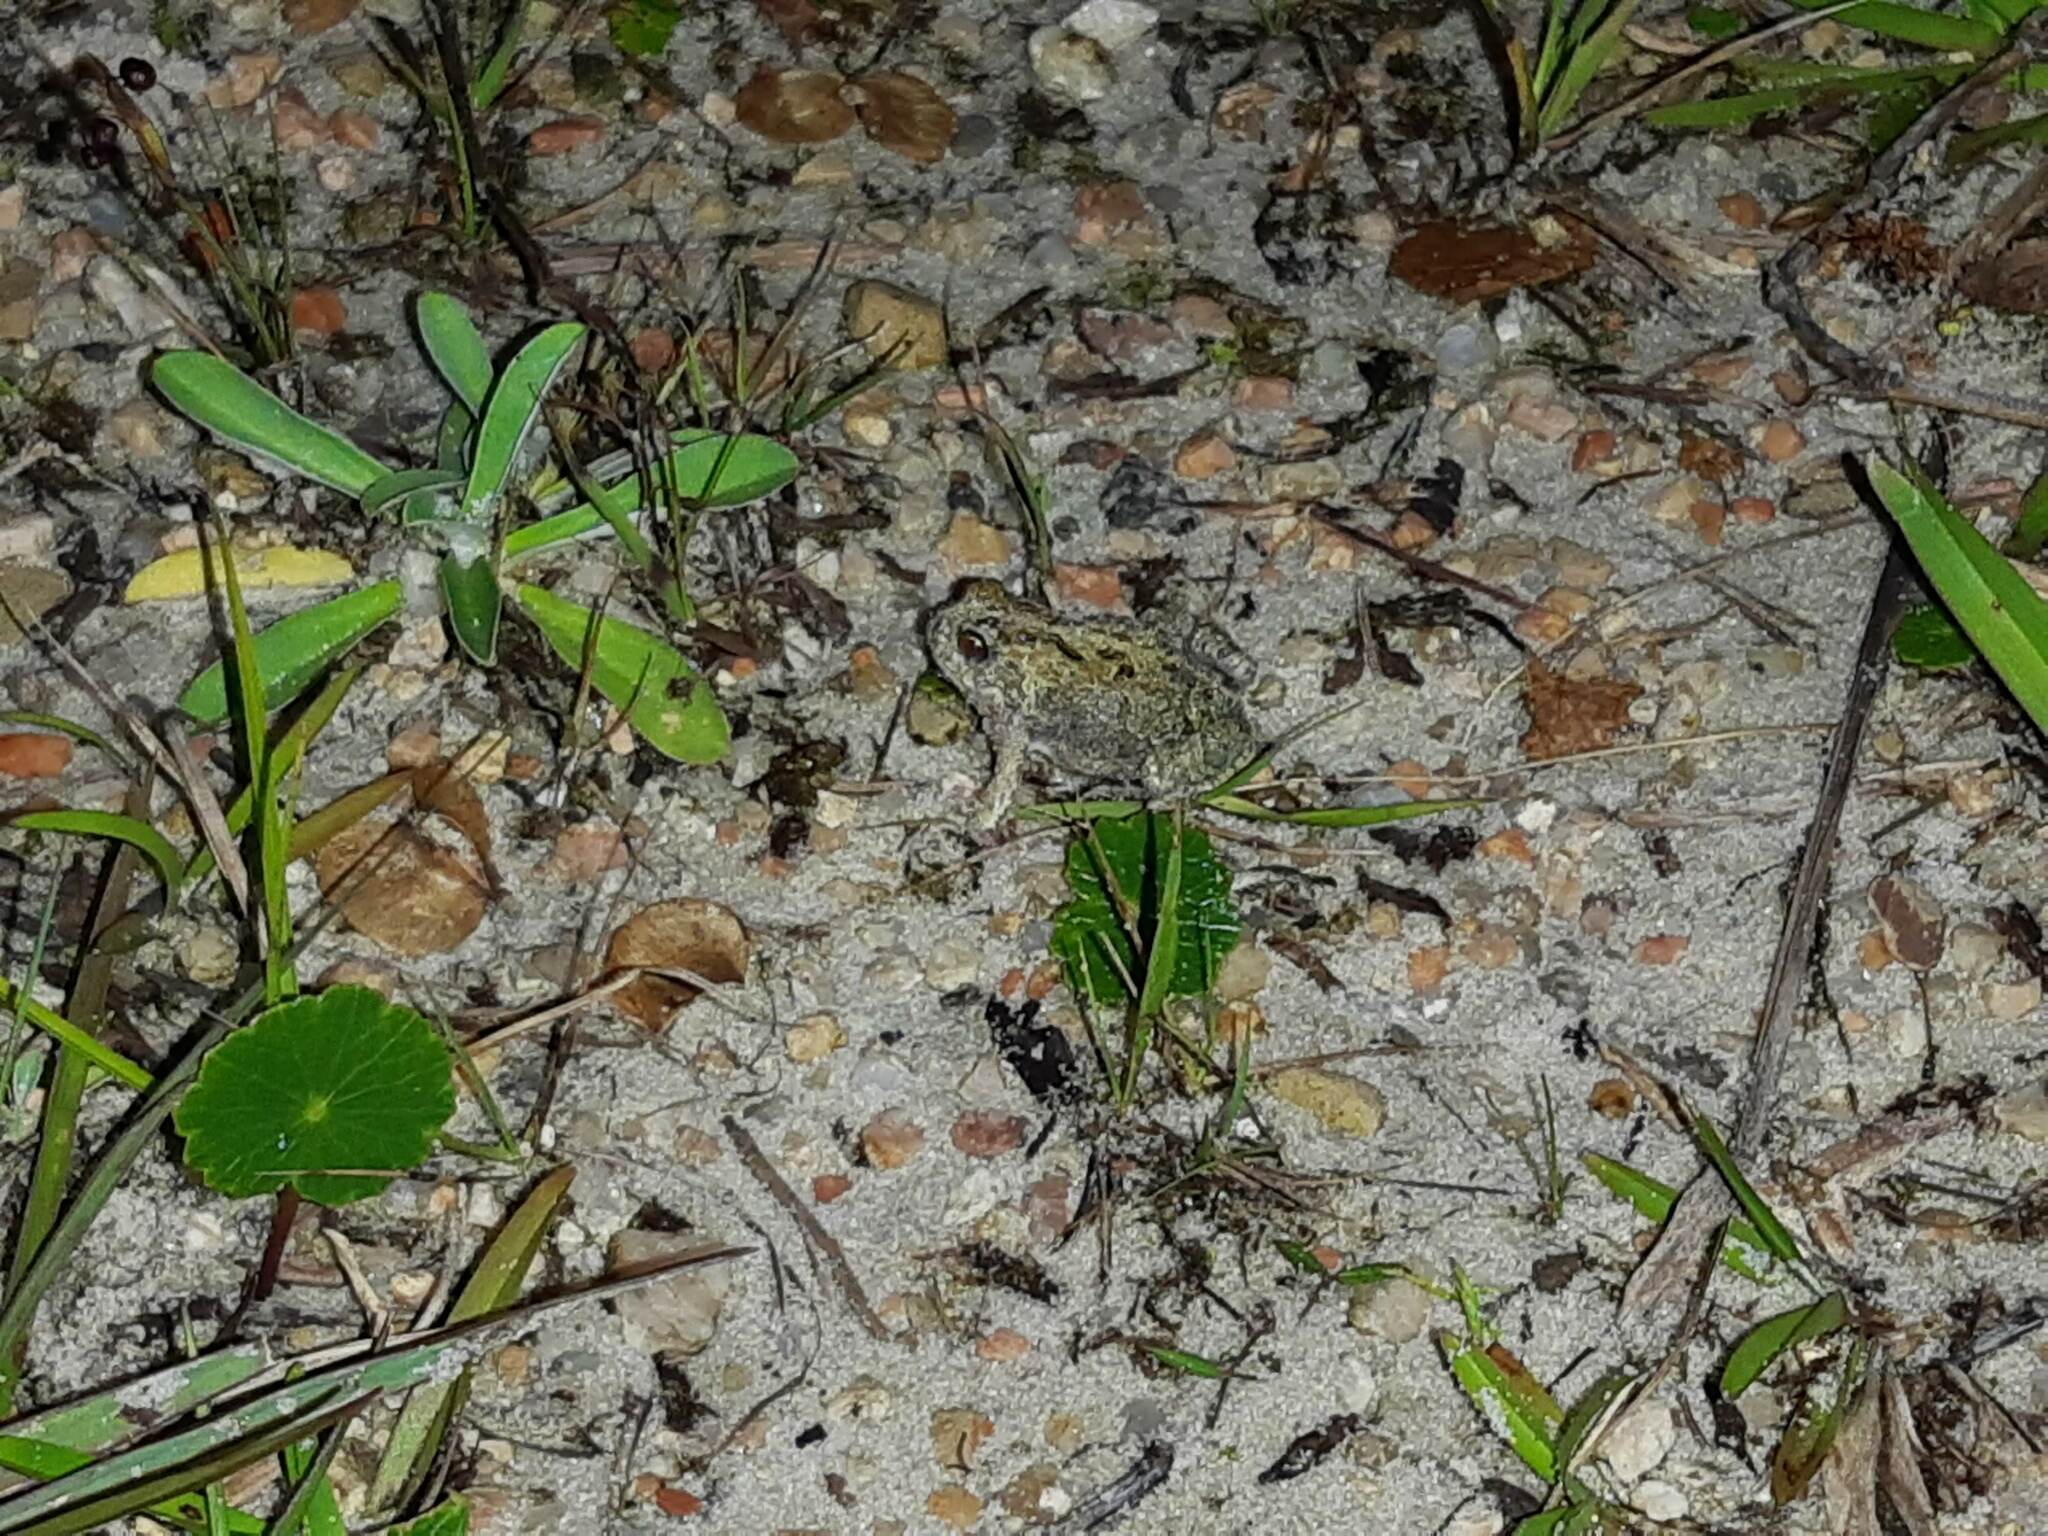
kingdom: Animalia
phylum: Chordata
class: Amphibia
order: Anura
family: Leptodactylidae
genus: Physalaemus
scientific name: Physalaemus biligonigerus
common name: Weeping frog
